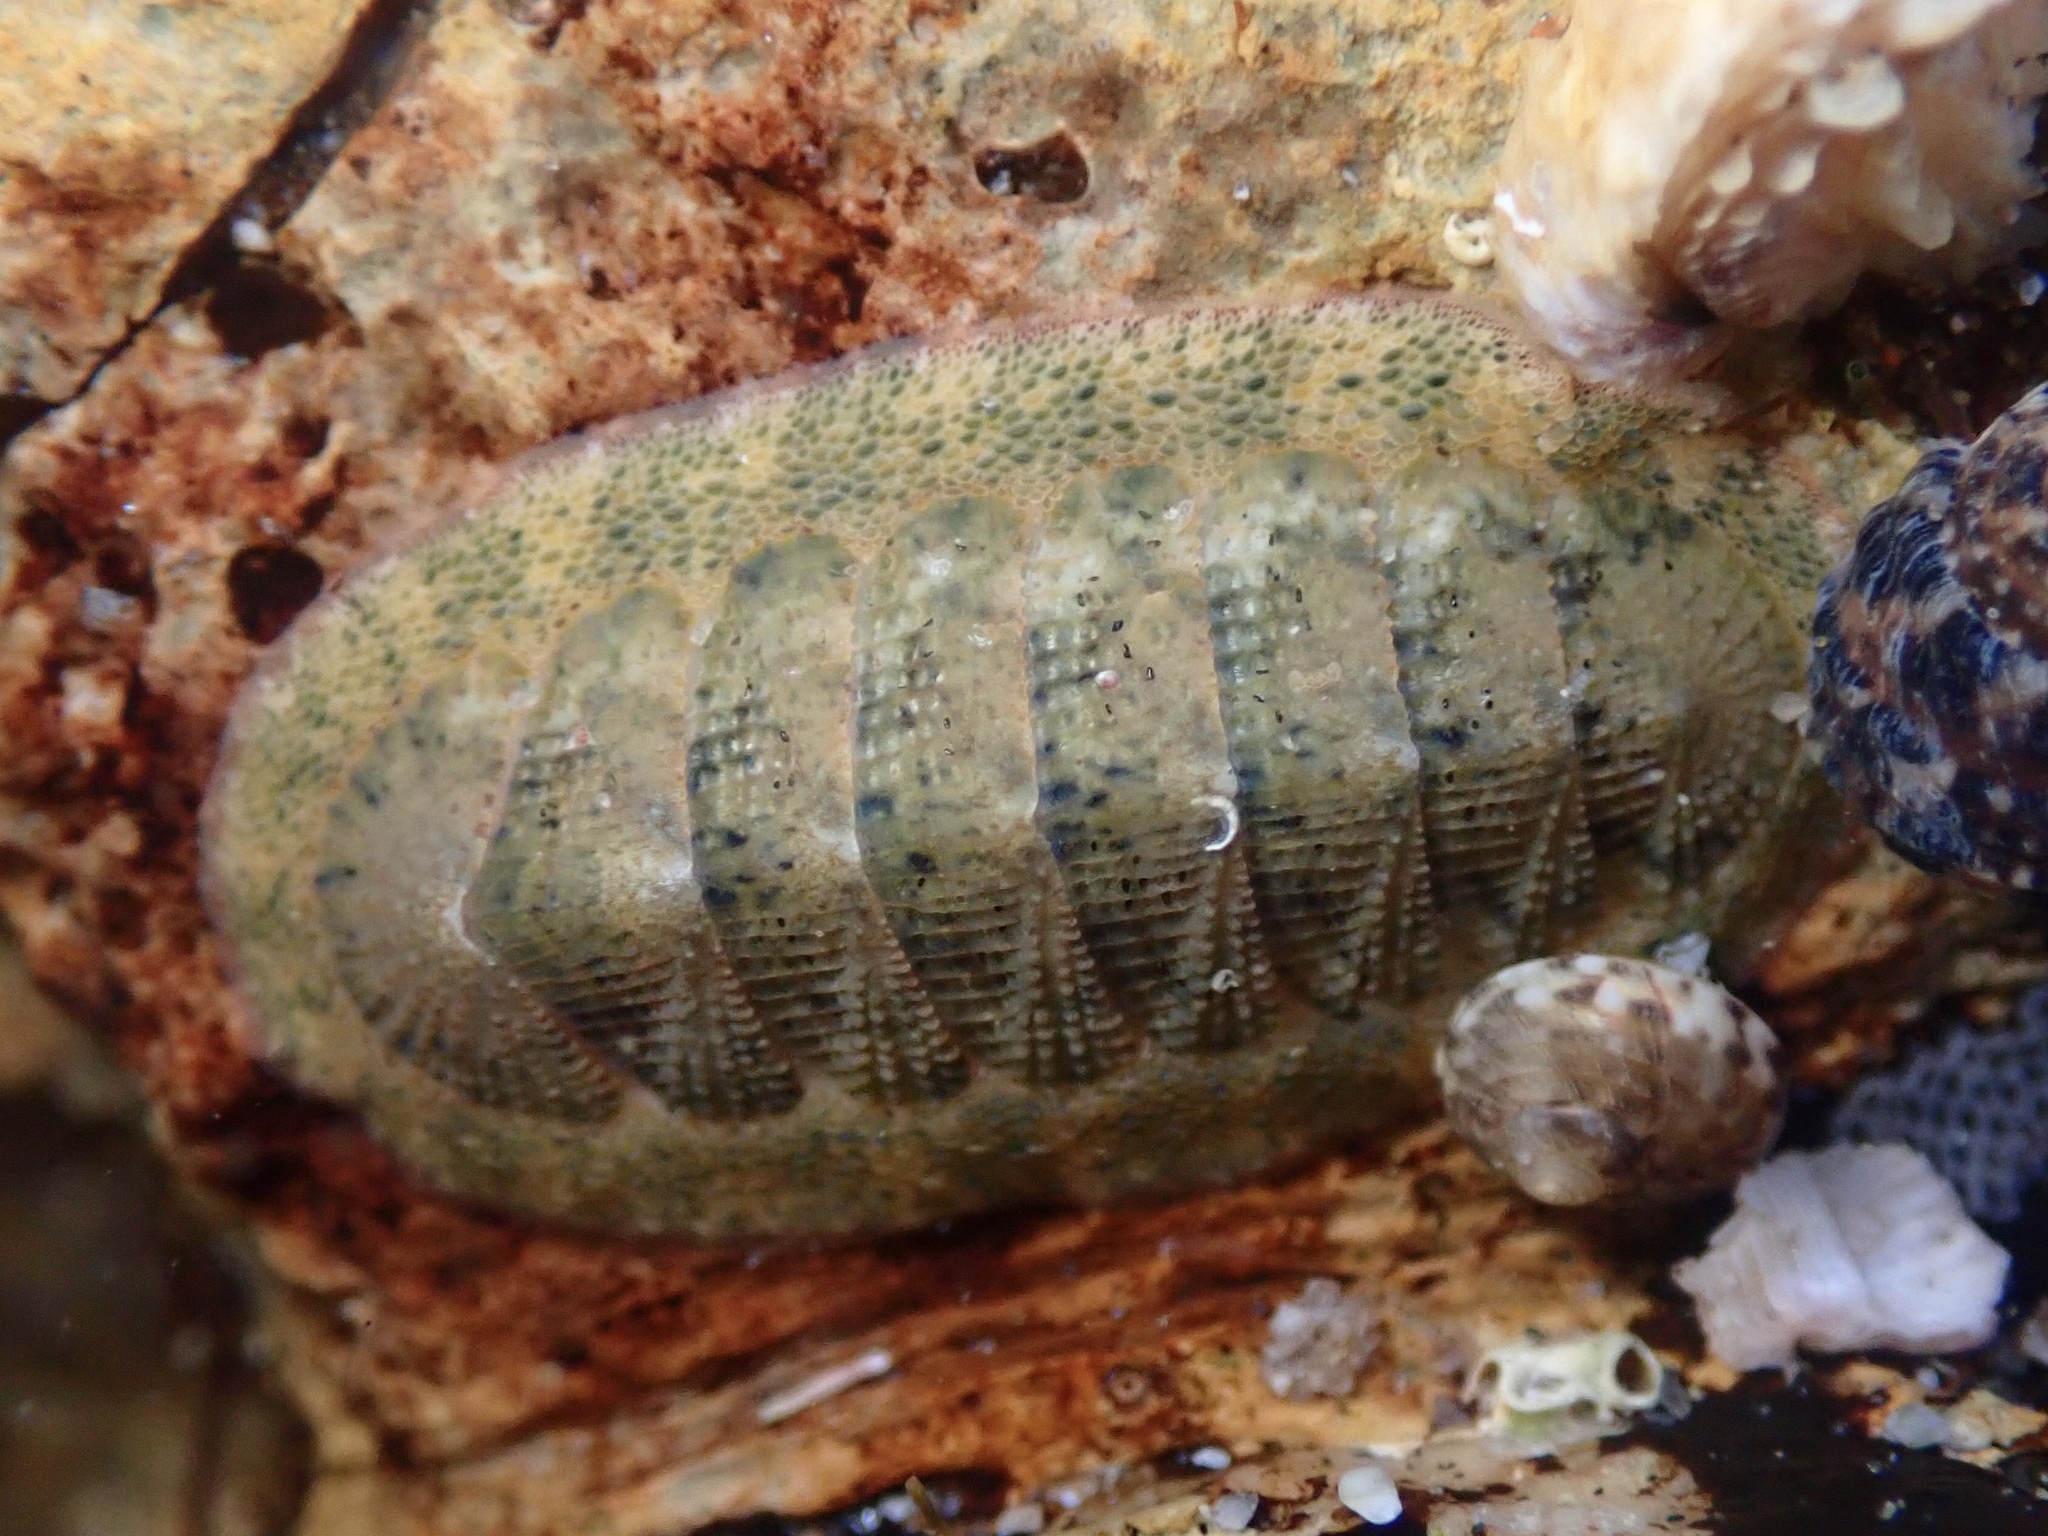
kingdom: Animalia
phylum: Mollusca
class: Polyplacophora
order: Chitonida
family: Ischnochitonidae
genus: Lepidozona
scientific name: Lepidozona pectinulata
